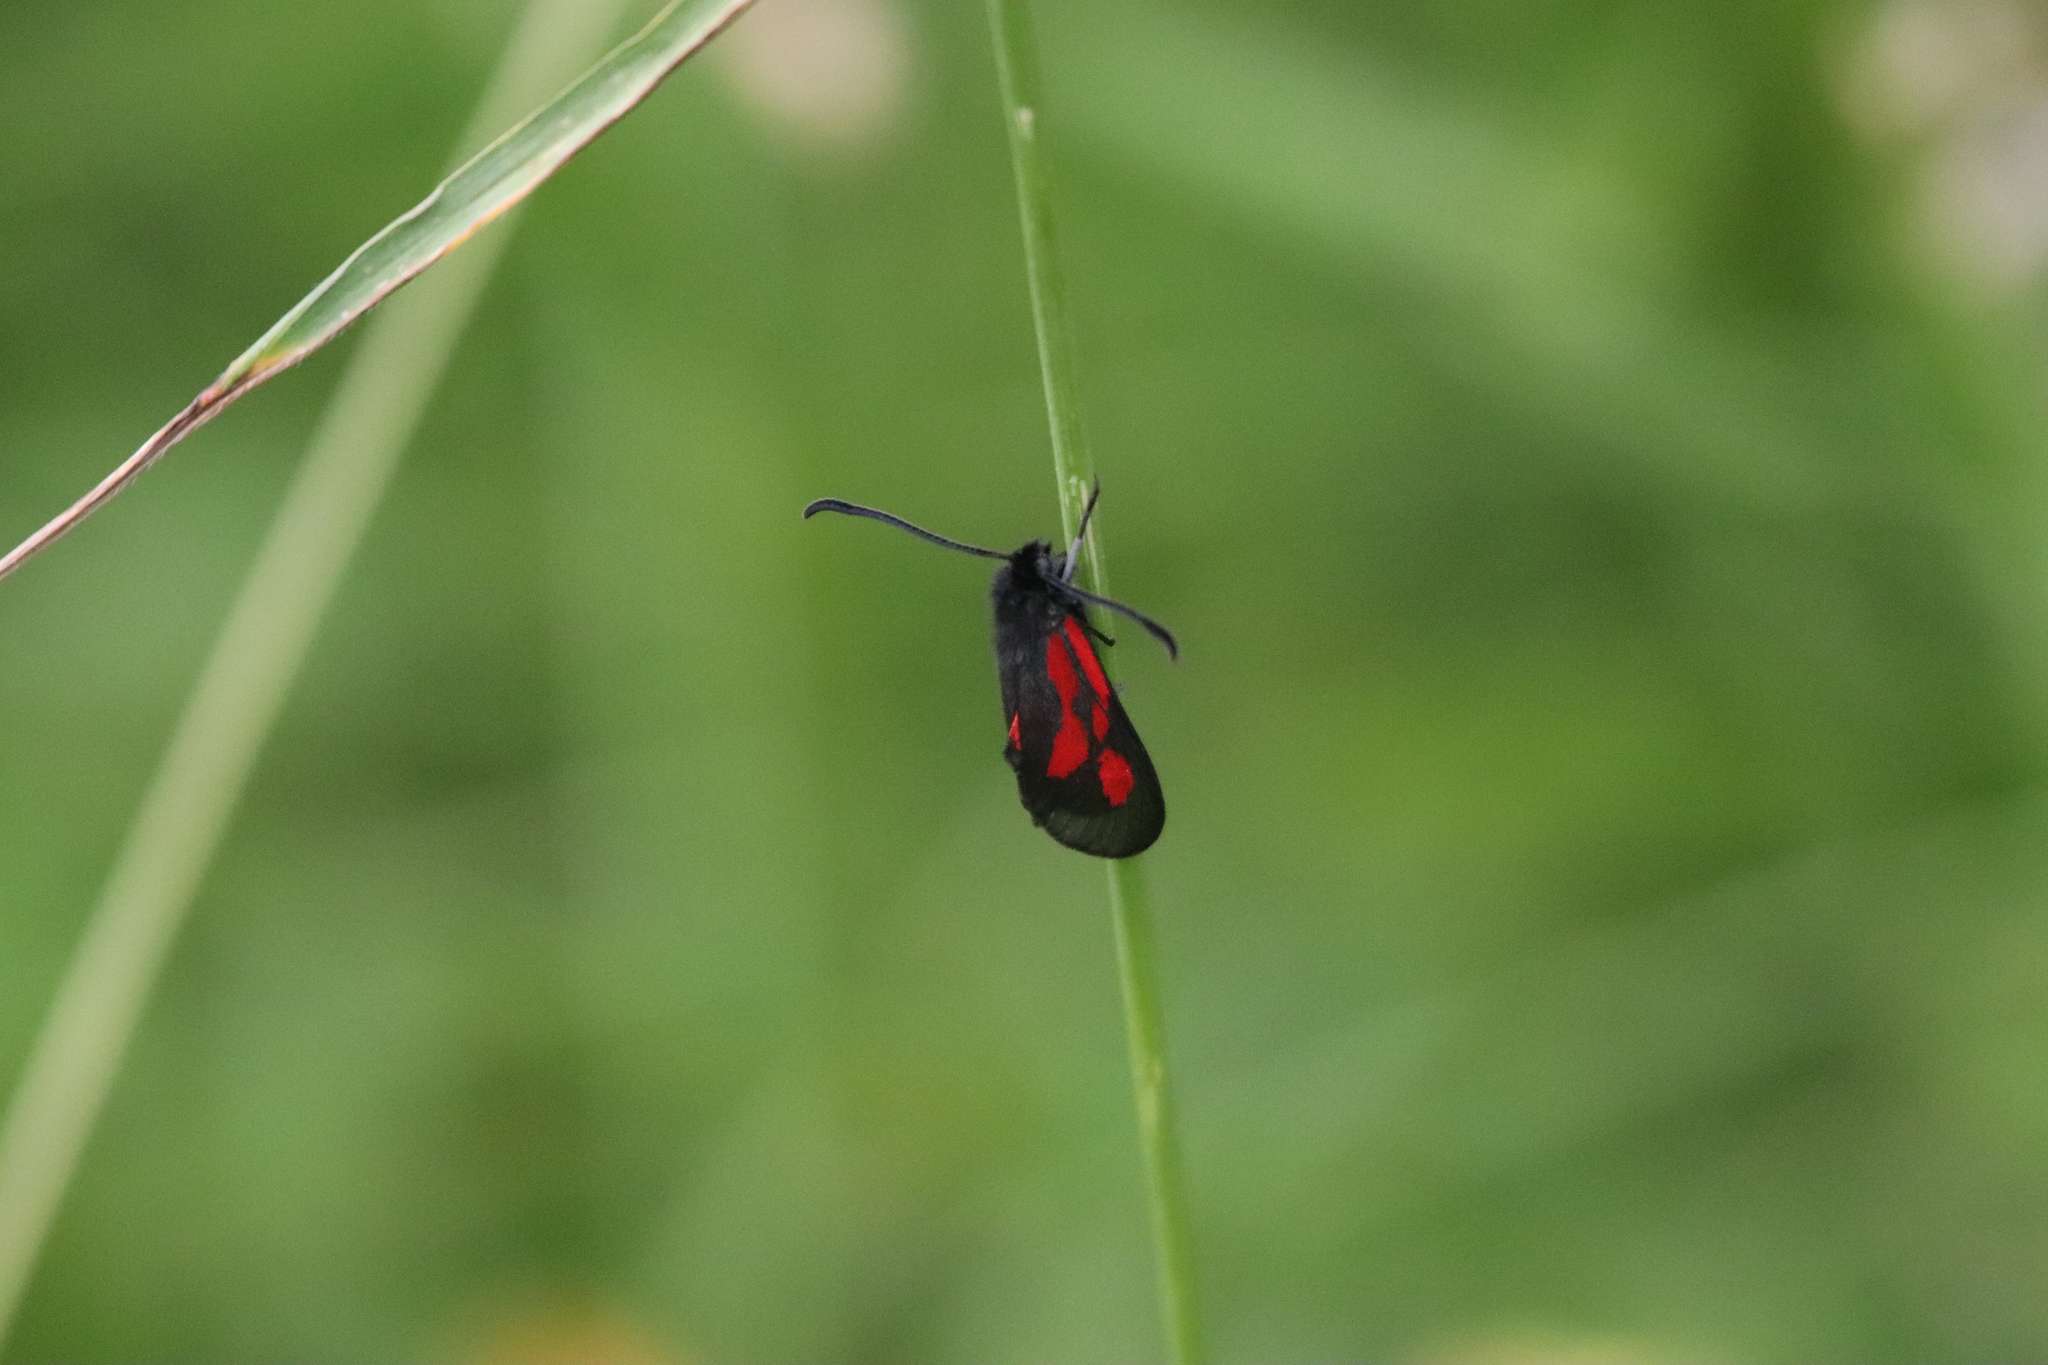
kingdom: Animalia
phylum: Arthropoda
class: Insecta
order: Lepidoptera
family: Zygaenidae
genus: Zygaena
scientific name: Zygaena romeo
